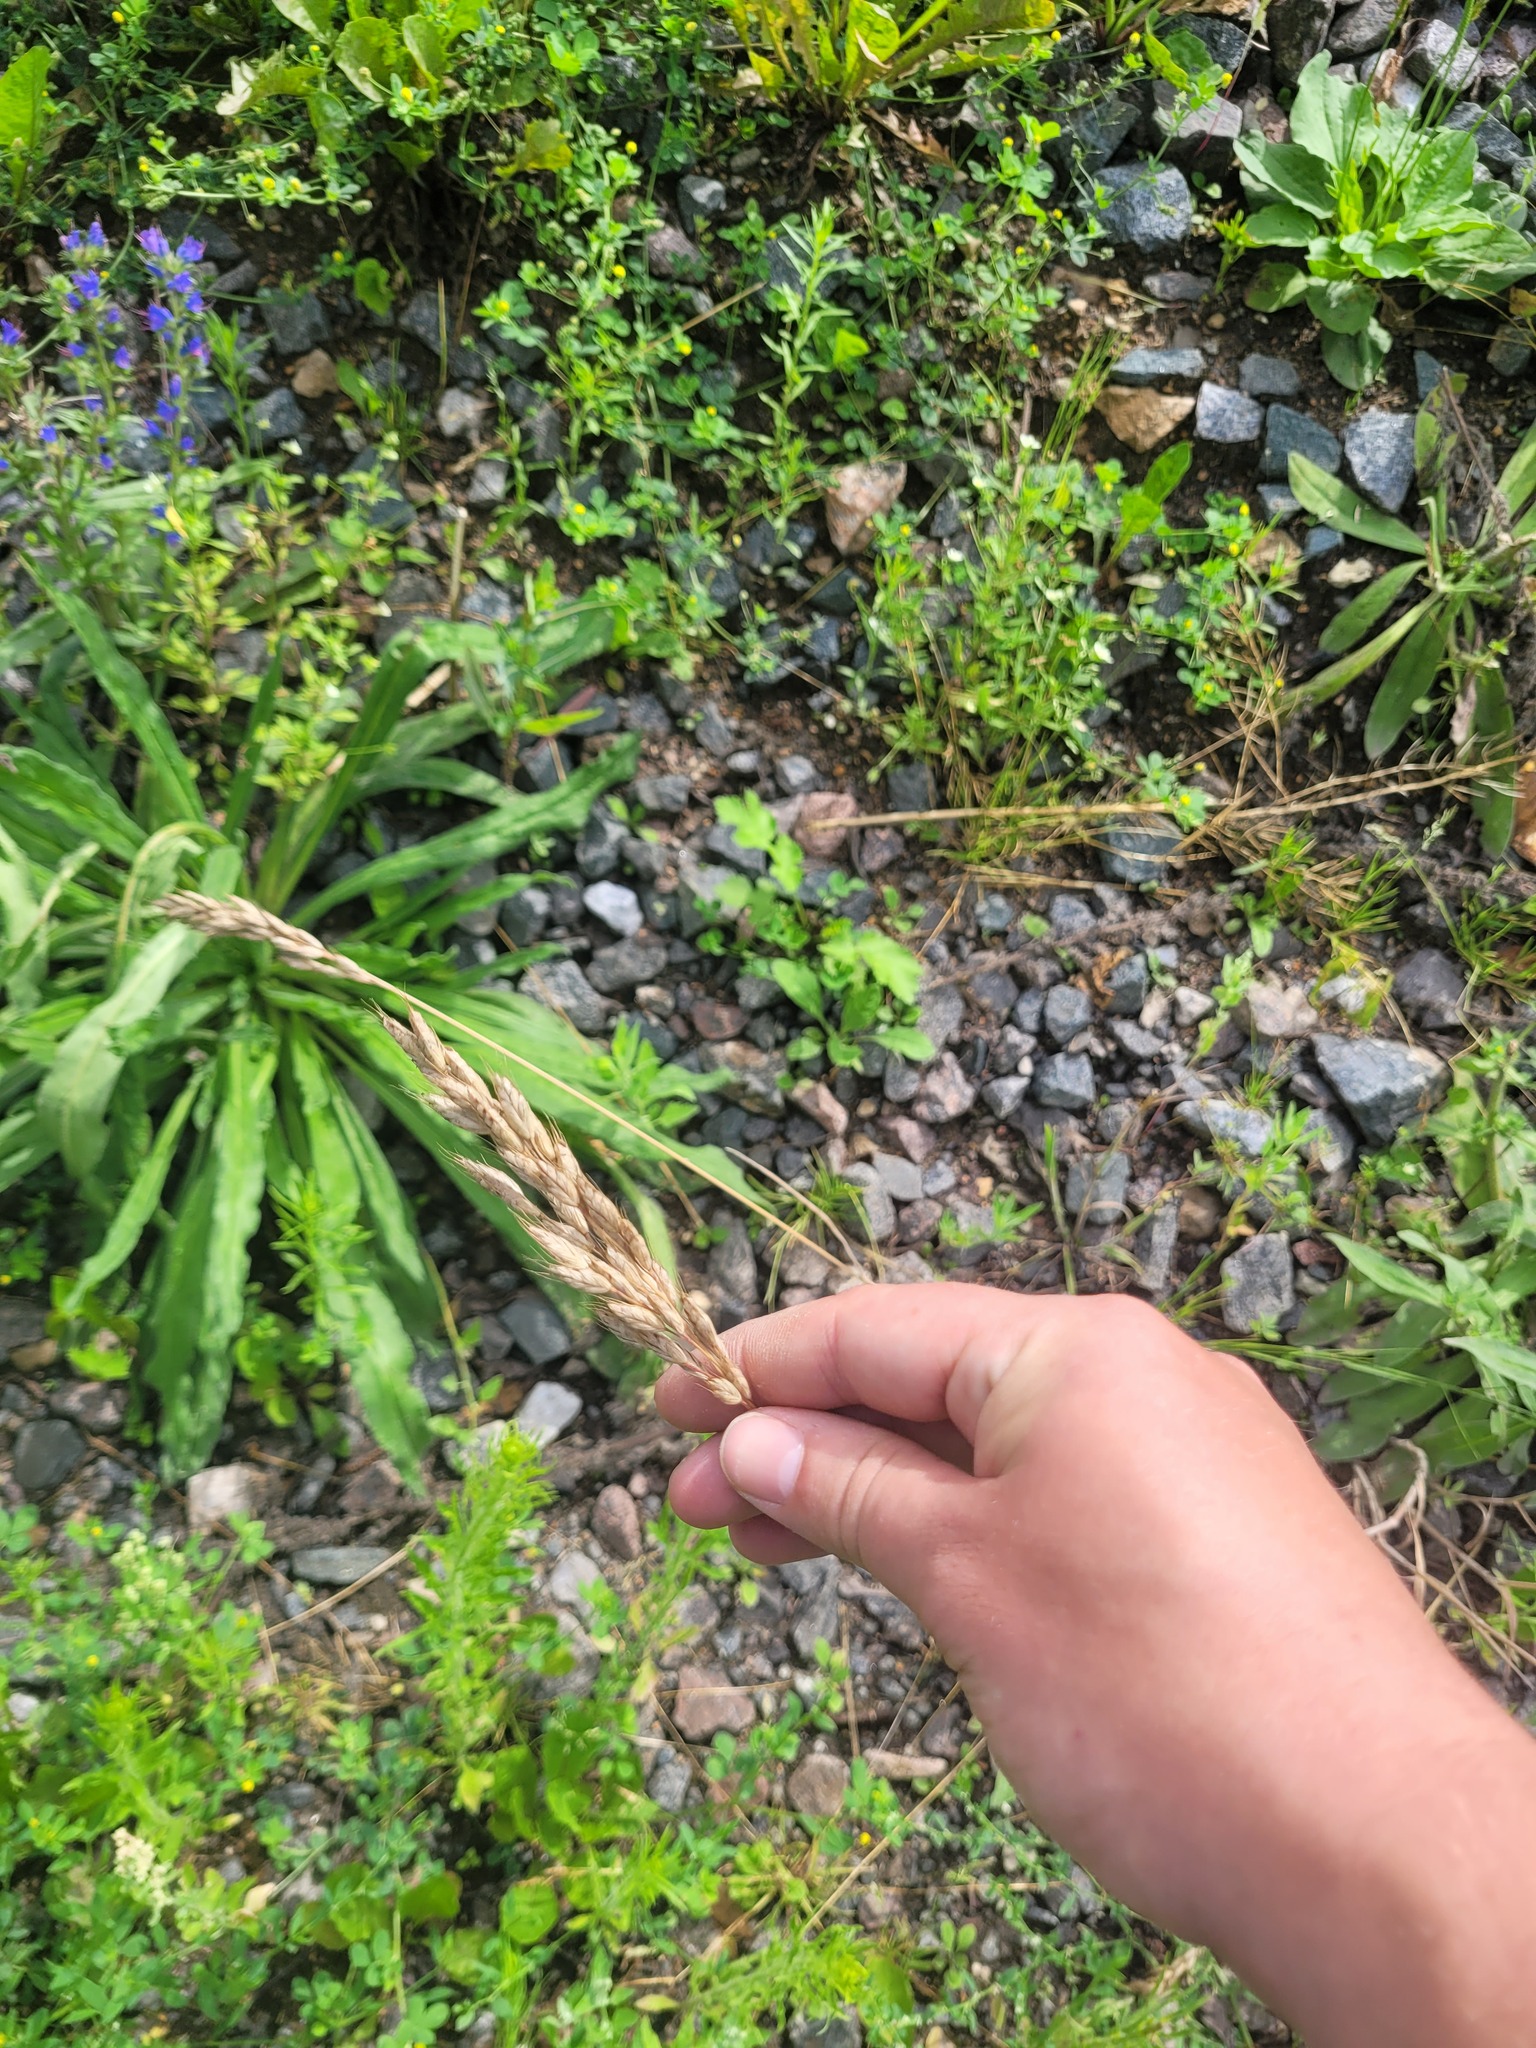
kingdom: Plantae
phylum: Tracheophyta
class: Liliopsida
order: Poales
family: Poaceae
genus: Bromus
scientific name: Bromus hordeaceus
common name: Soft brome
